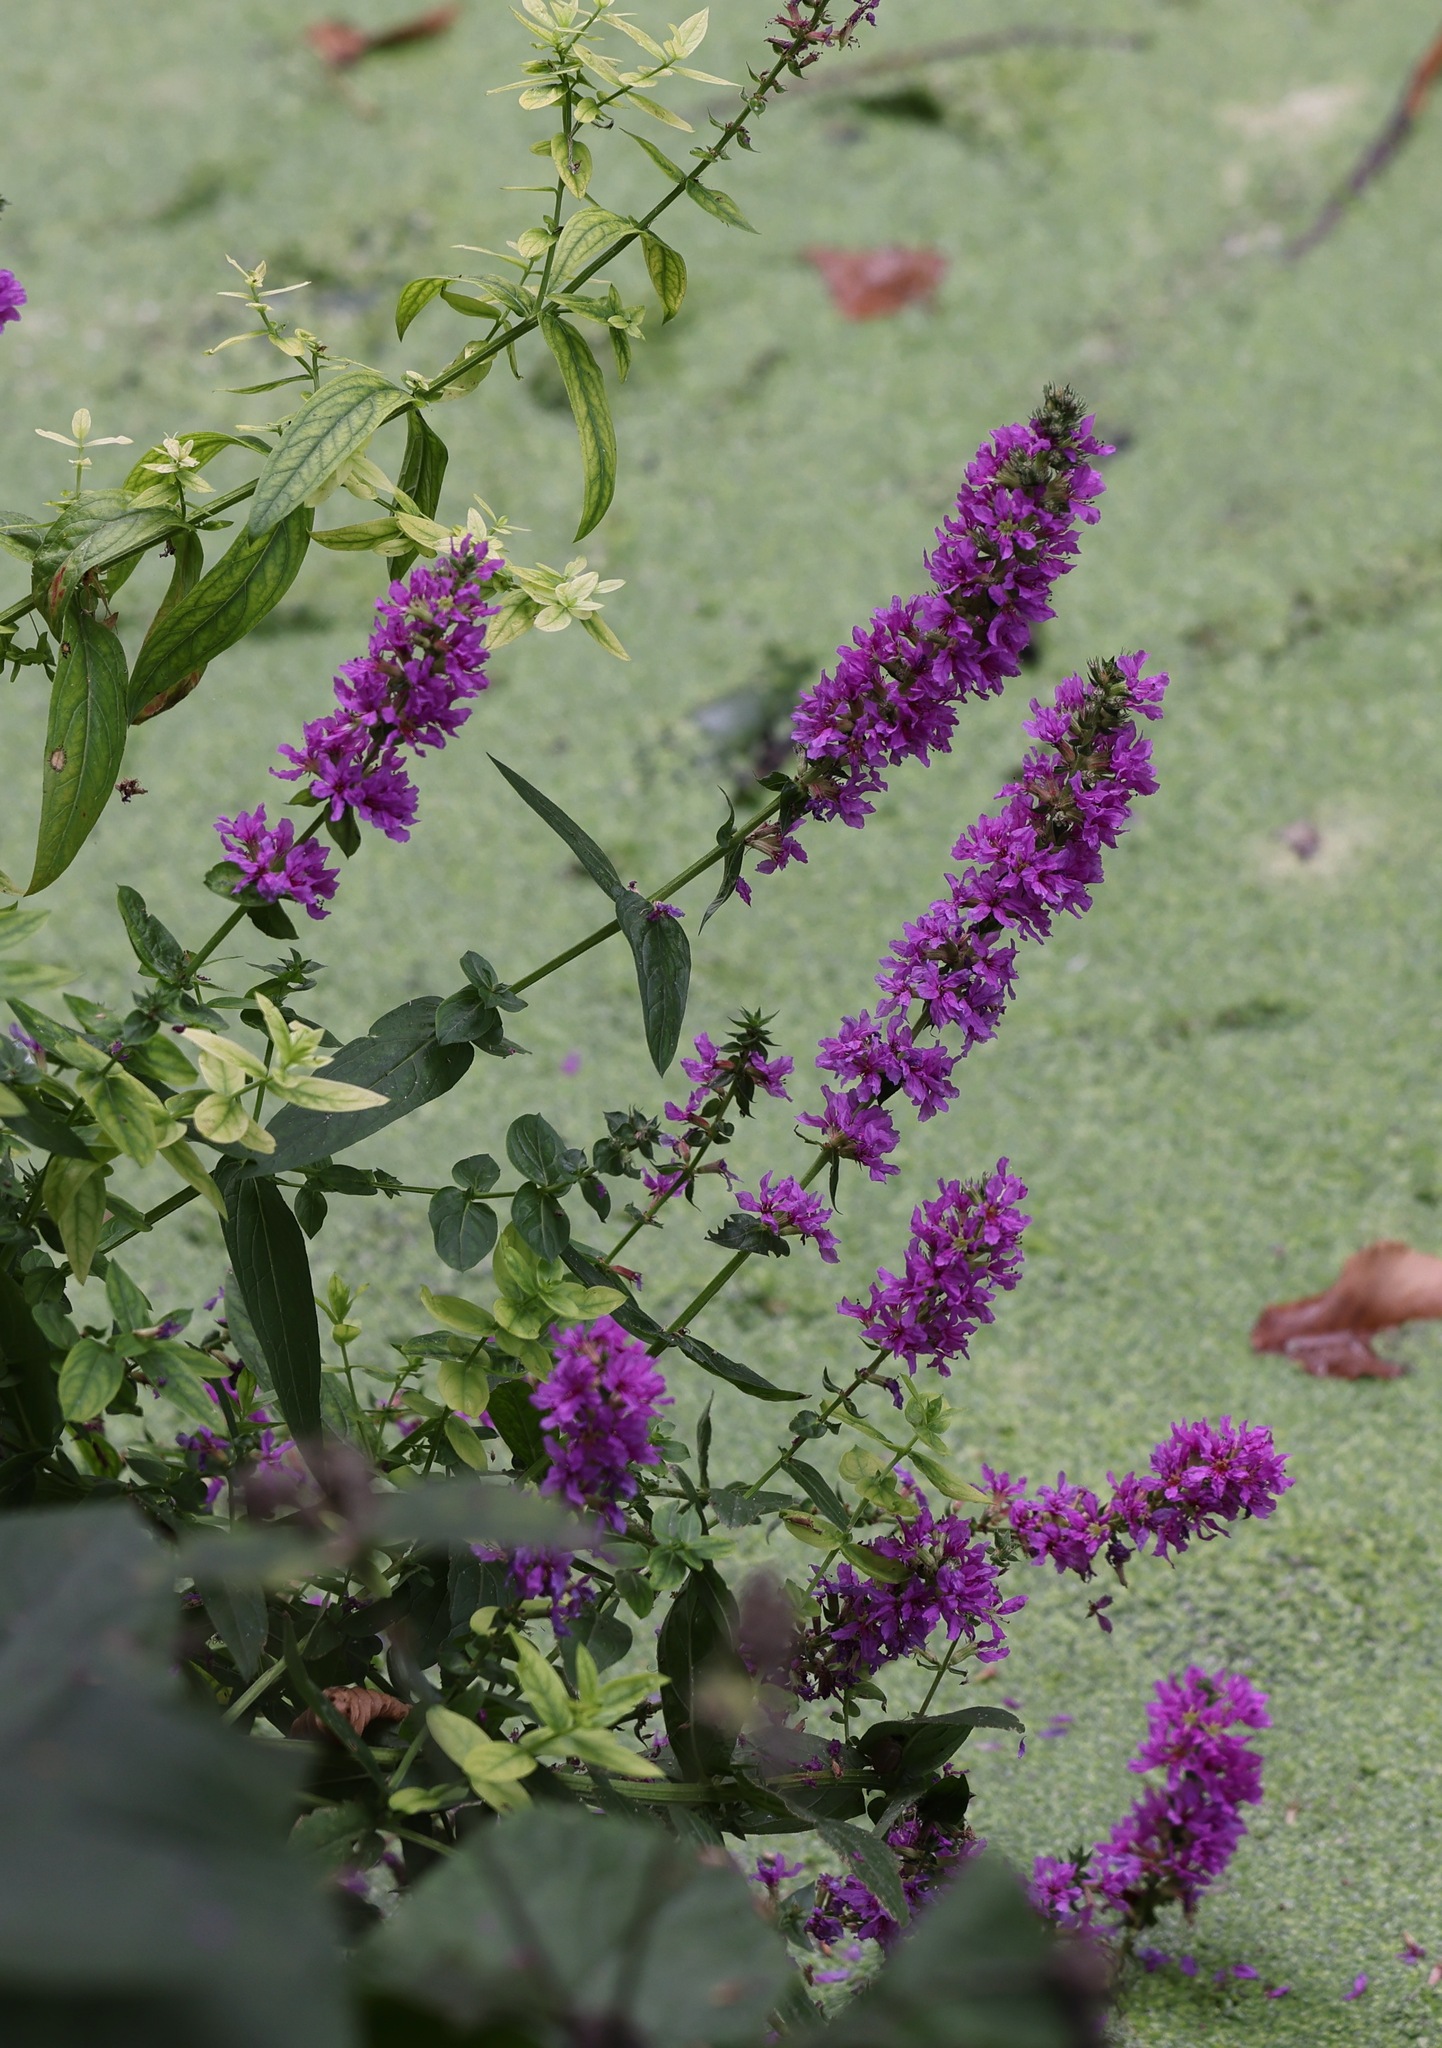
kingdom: Plantae
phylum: Tracheophyta
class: Magnoliopsida
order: Myrtales
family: Lythraceae
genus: Lythrum
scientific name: Lythrum salicaria
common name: Purple loosestrife
